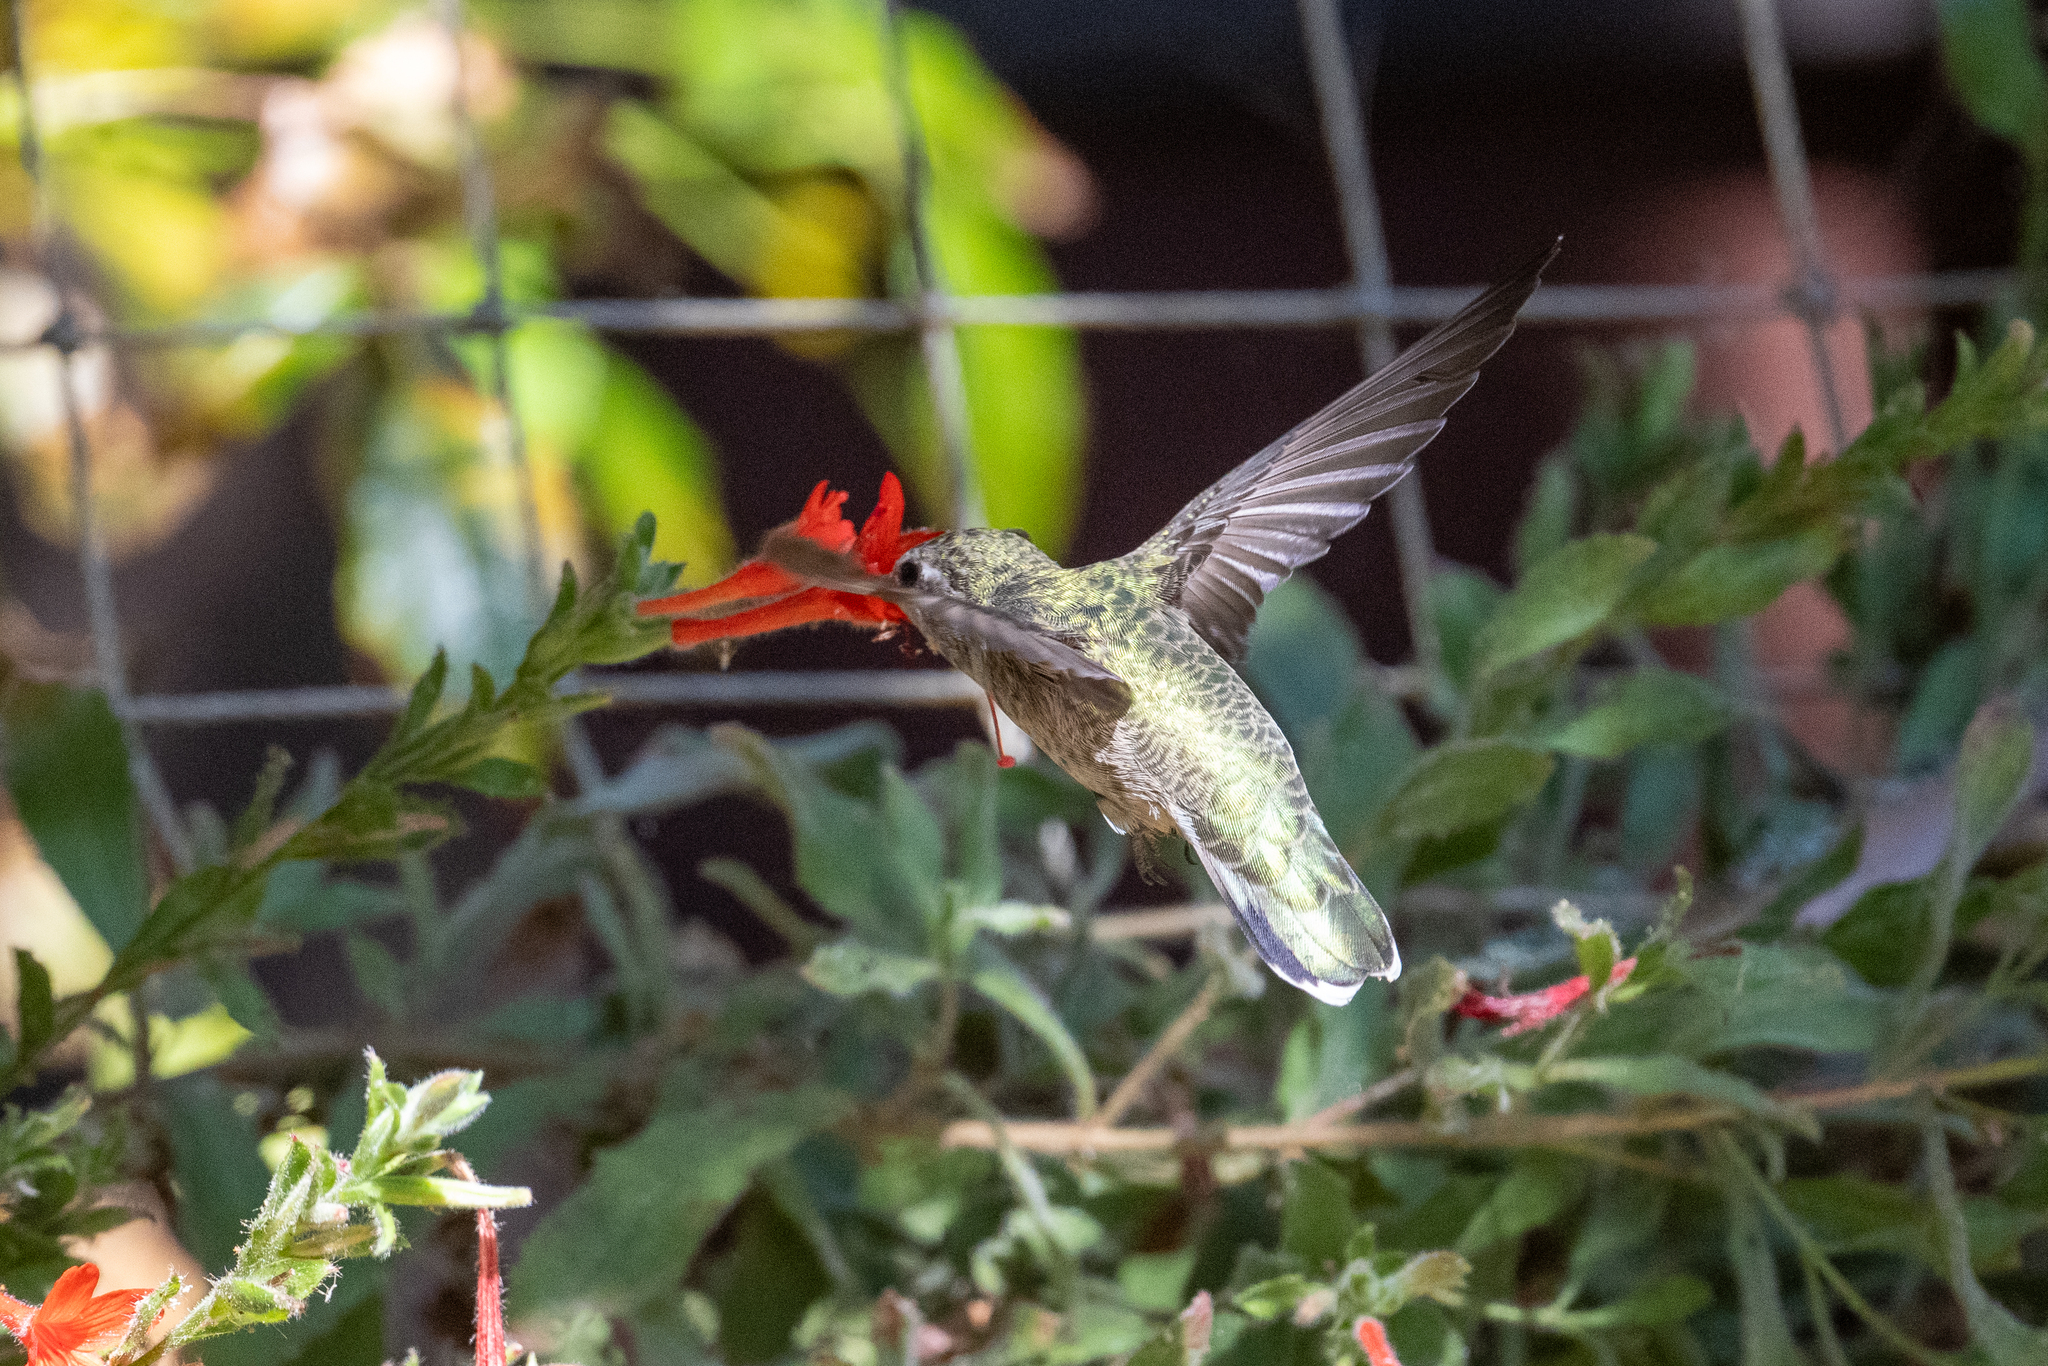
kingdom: Animalia
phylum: Chordata
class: Aves
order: Apodiformes
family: Trochilidae
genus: Calypte
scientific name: Calypte anna
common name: Anna's hummingbird
